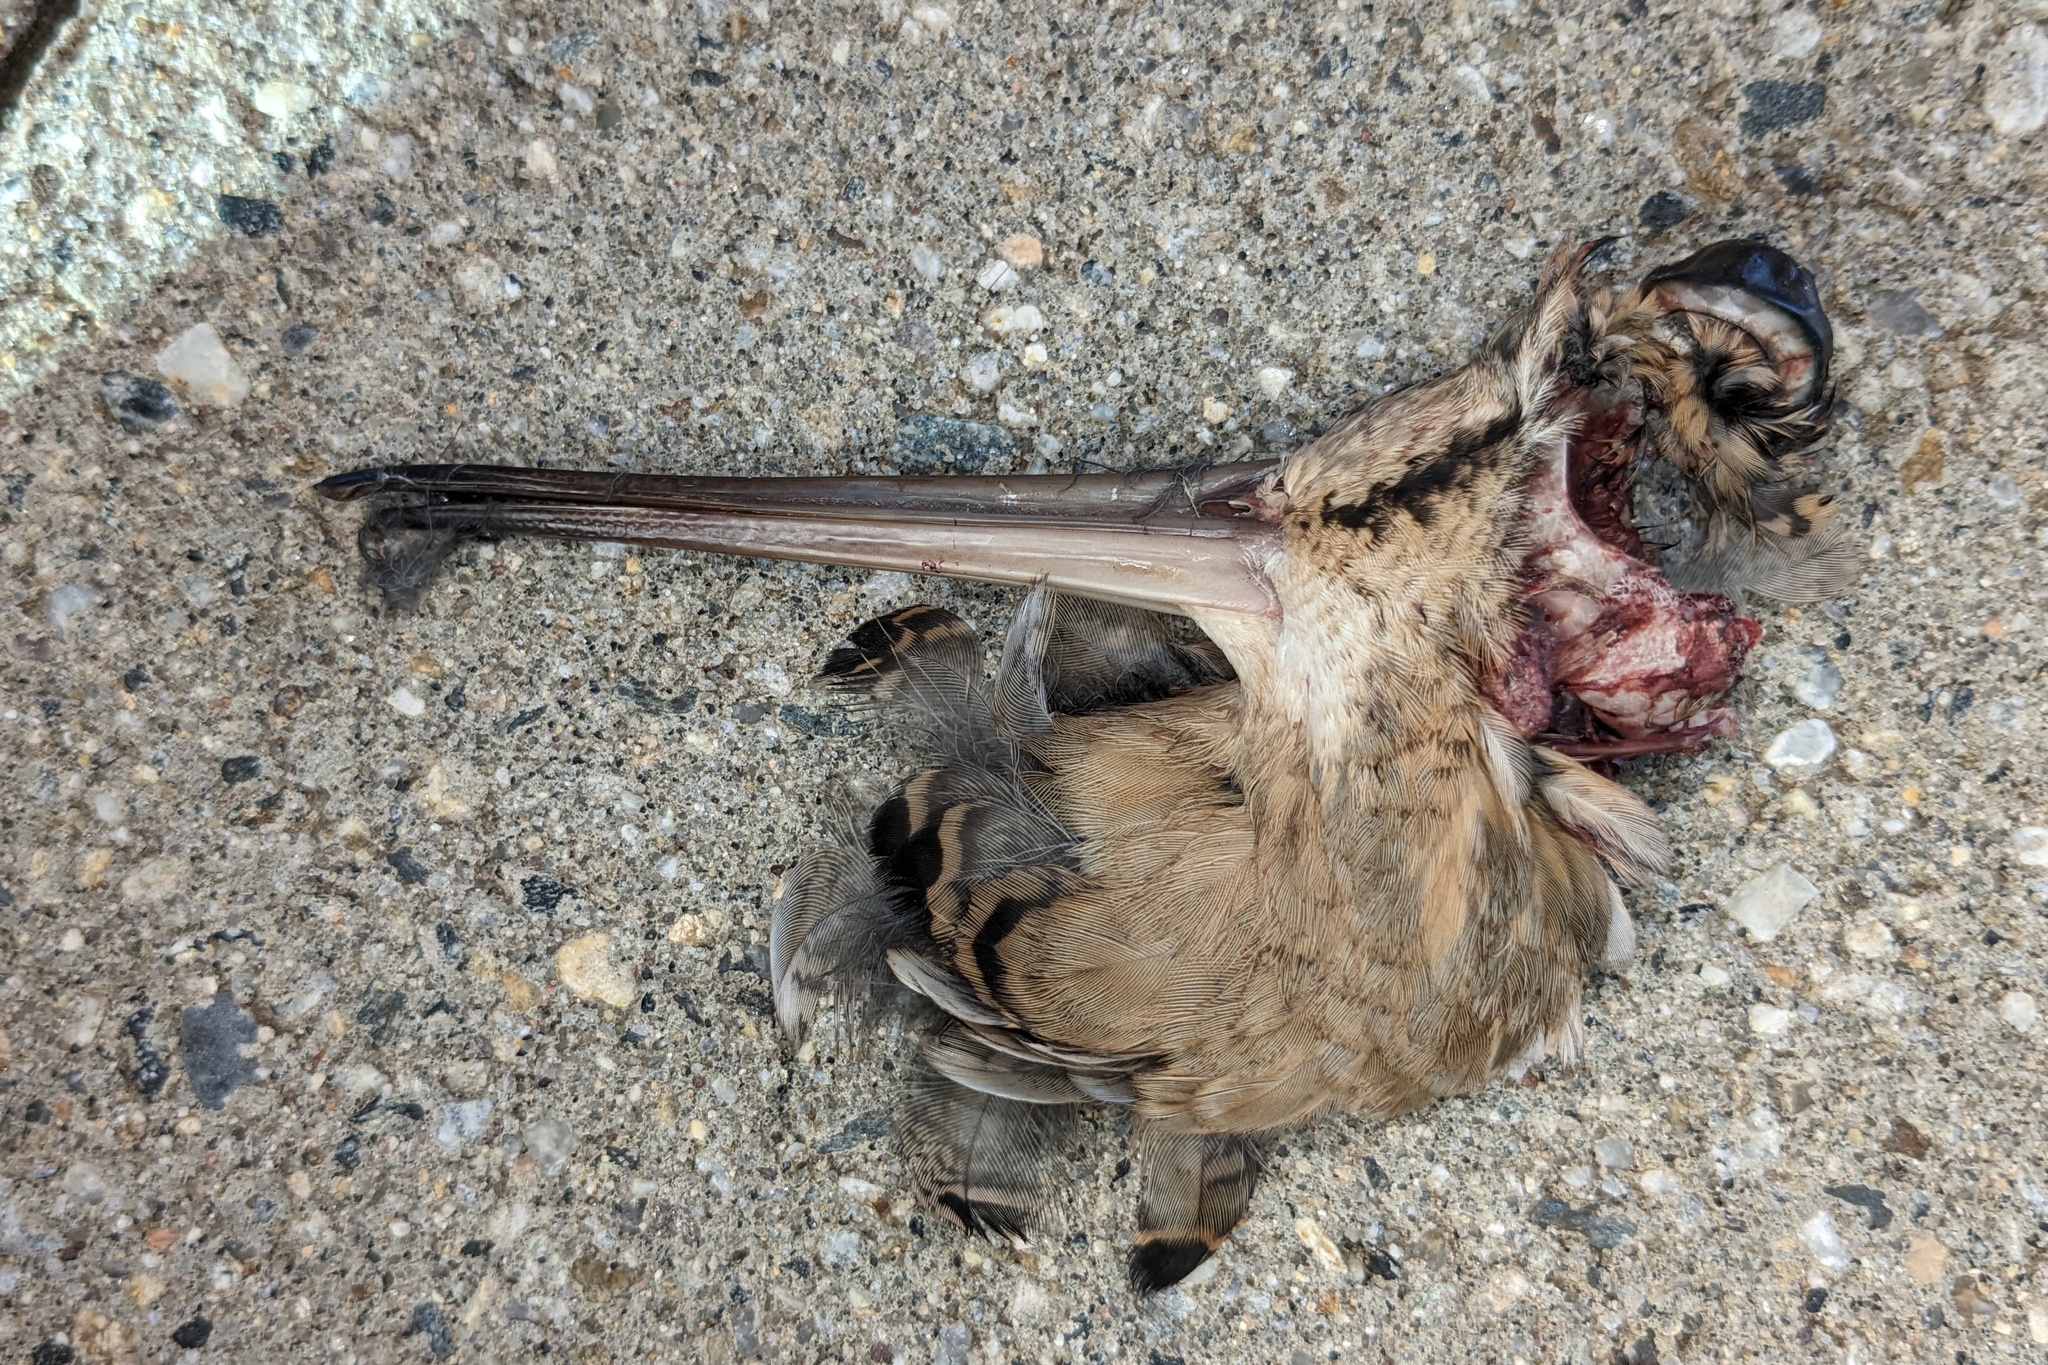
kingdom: Animalia
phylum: Chordata
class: Aves
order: Charadriiformes
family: Scolopacidae
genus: Scolopax
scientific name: Scolopax minor
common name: American woodcock
